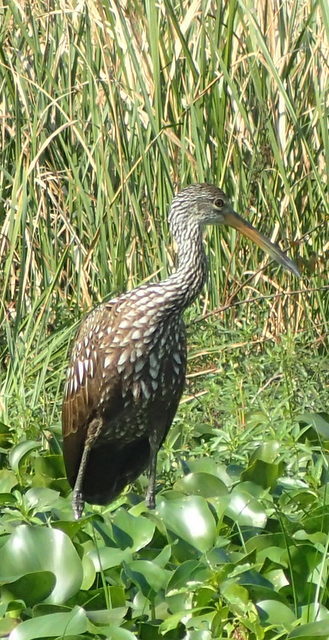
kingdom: Animalia
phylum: Chordata
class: Aves
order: Gruiformes
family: Aramidae
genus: Aramus
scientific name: Aramus guarauna
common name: Limpkin
